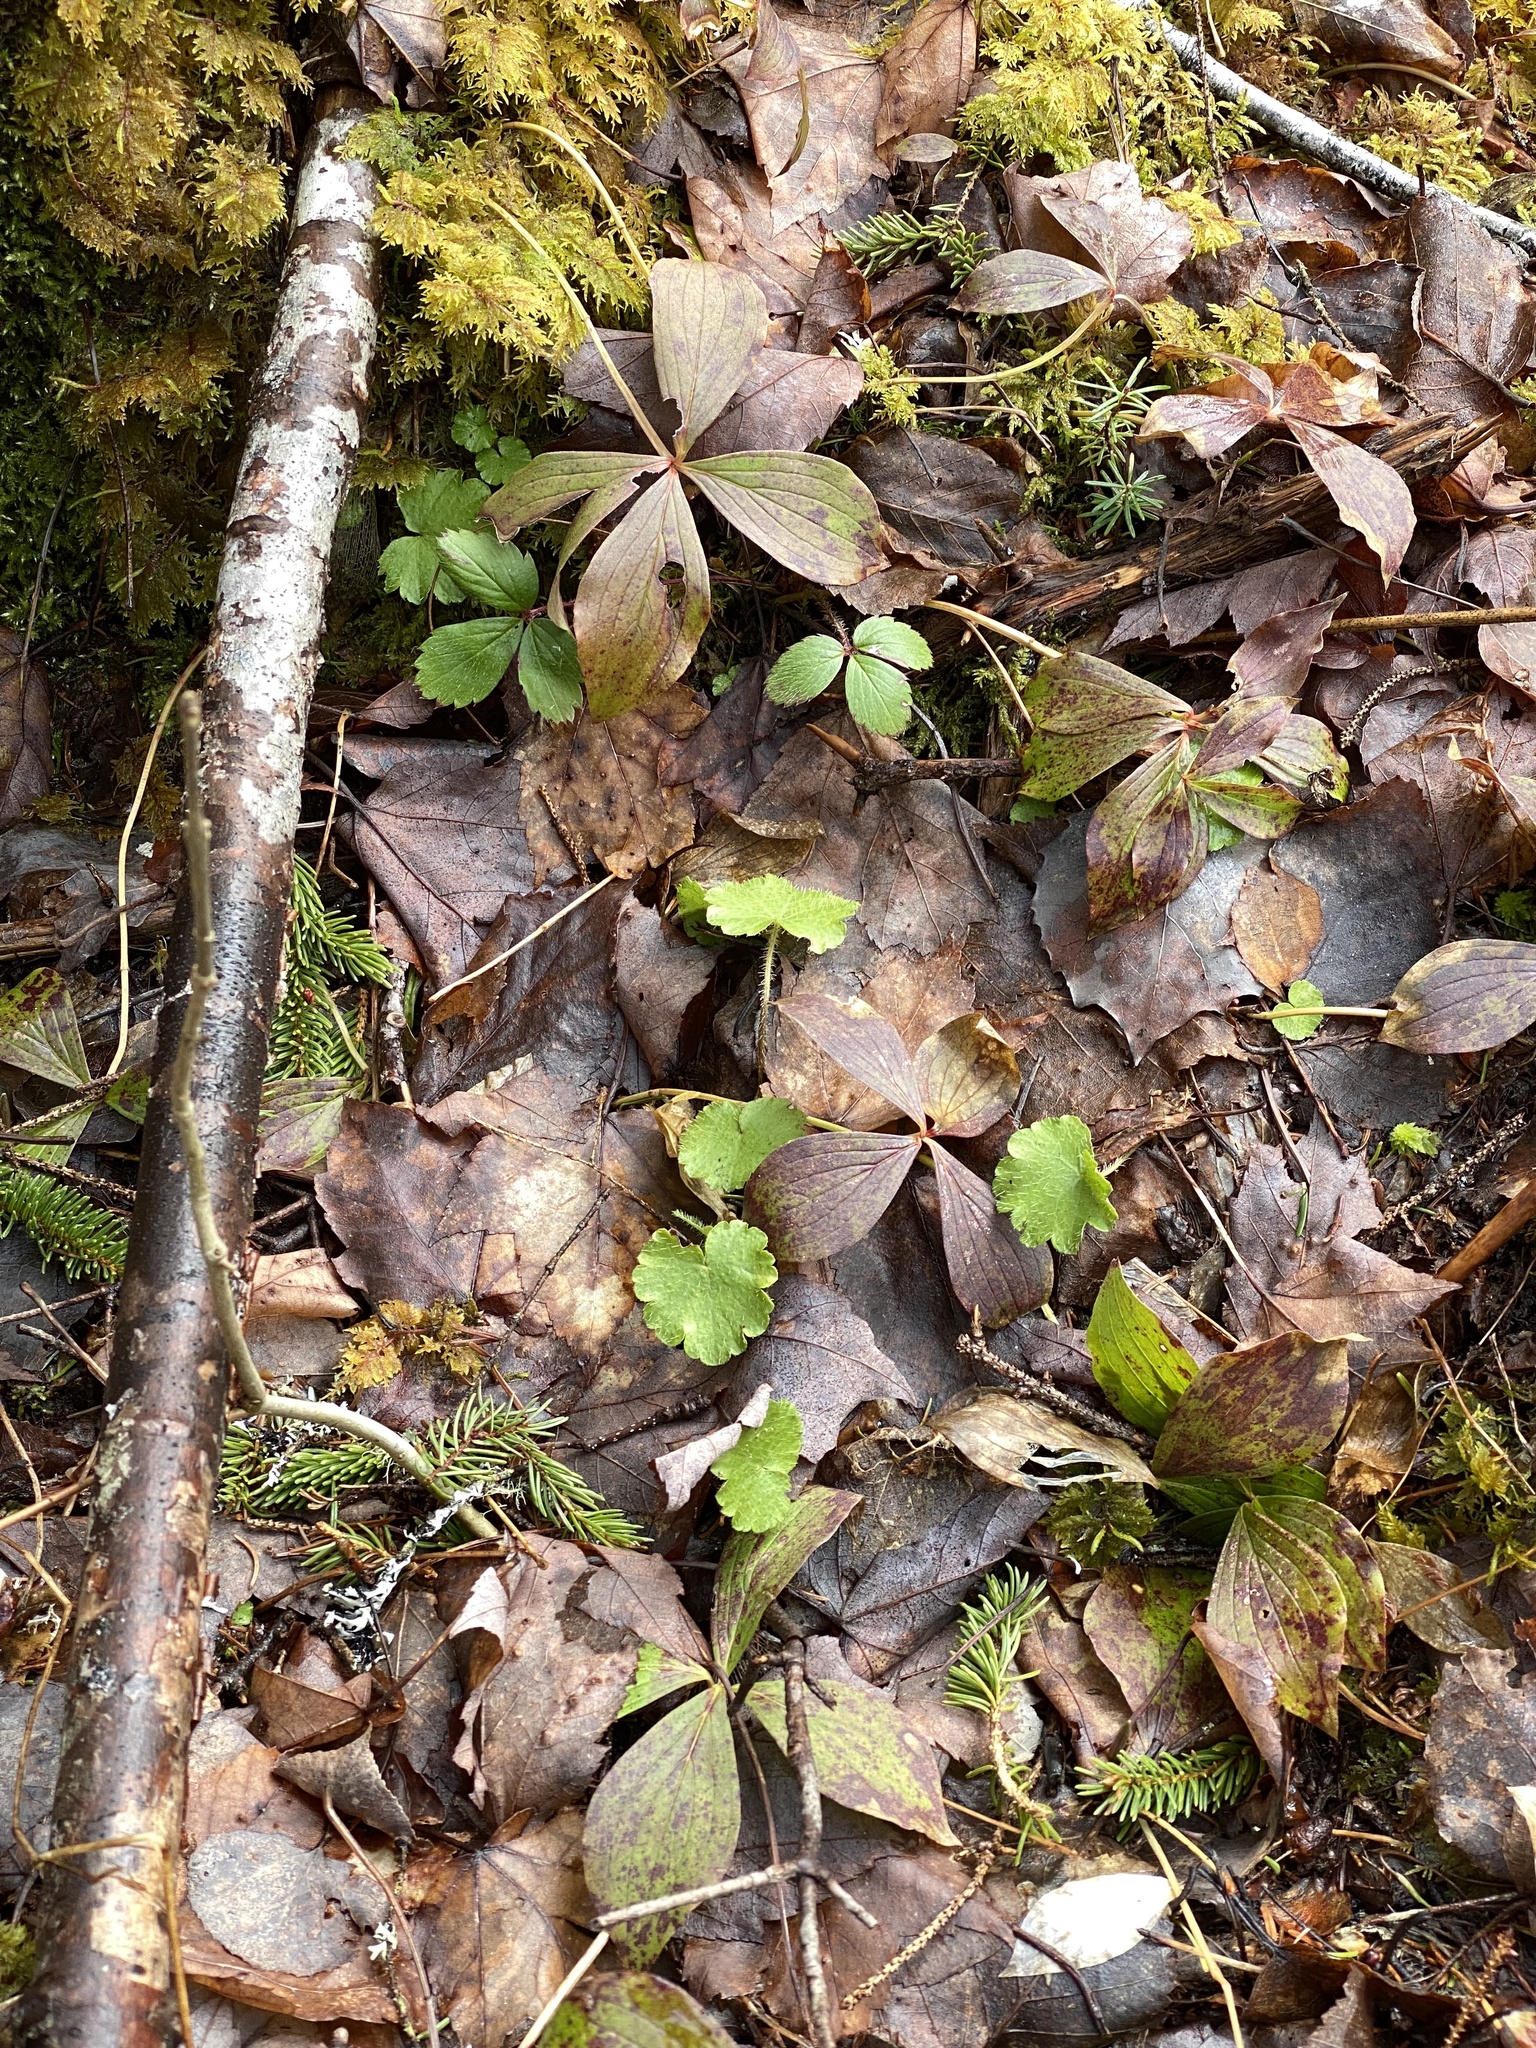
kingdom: Plantae
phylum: Tracheophyta
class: Magnoliopsida
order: Saxifragales
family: Saxifragaceae
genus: Mitella
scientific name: Mitella nuda
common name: Bare-stemmed bishop's-cap
